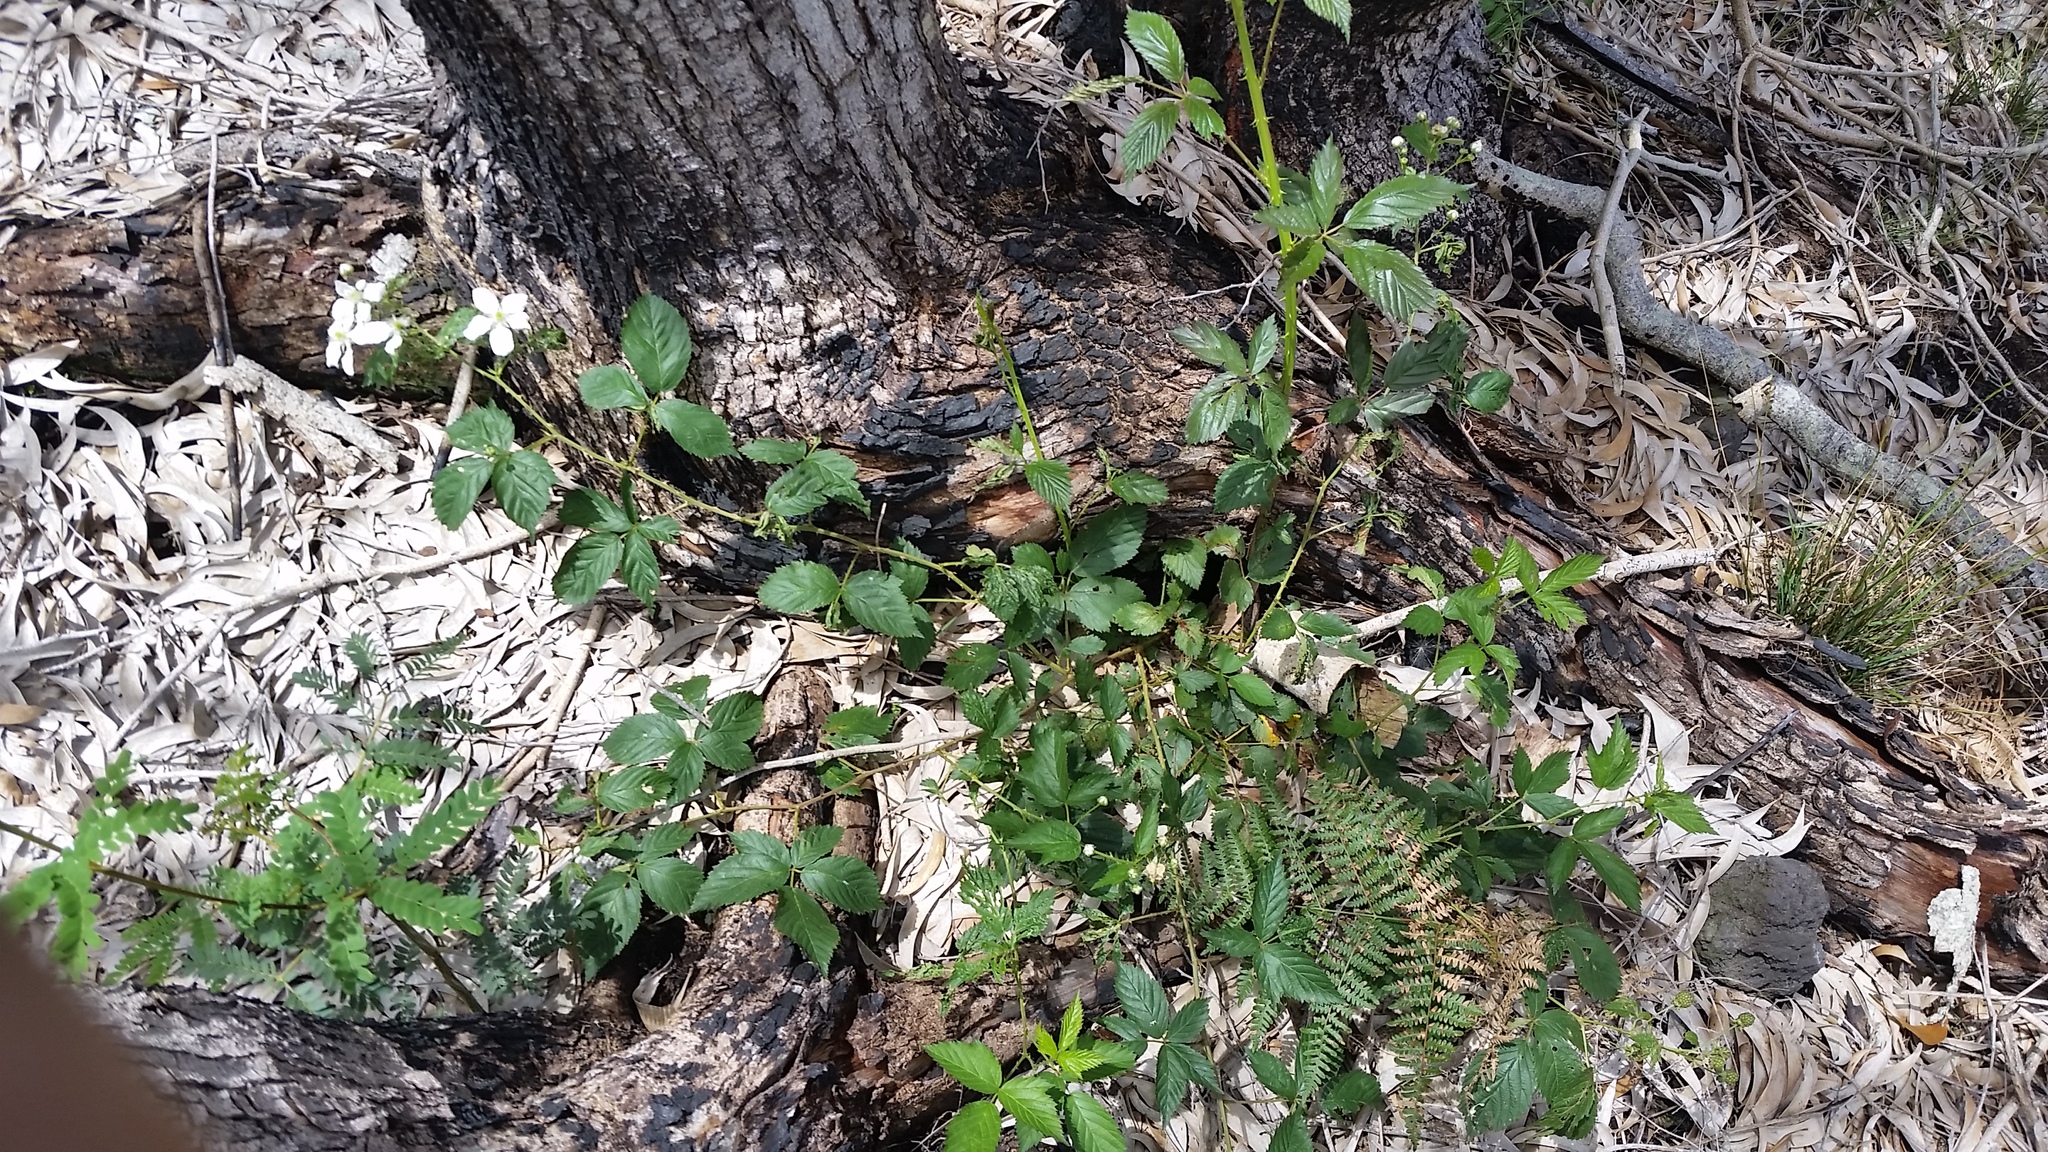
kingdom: Plantae
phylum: Tracheophyta
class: Magnoliopsida
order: Rosales
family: Rosaceae
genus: Rubus
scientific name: Rubus argutus
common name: Sawtooth blackberry
